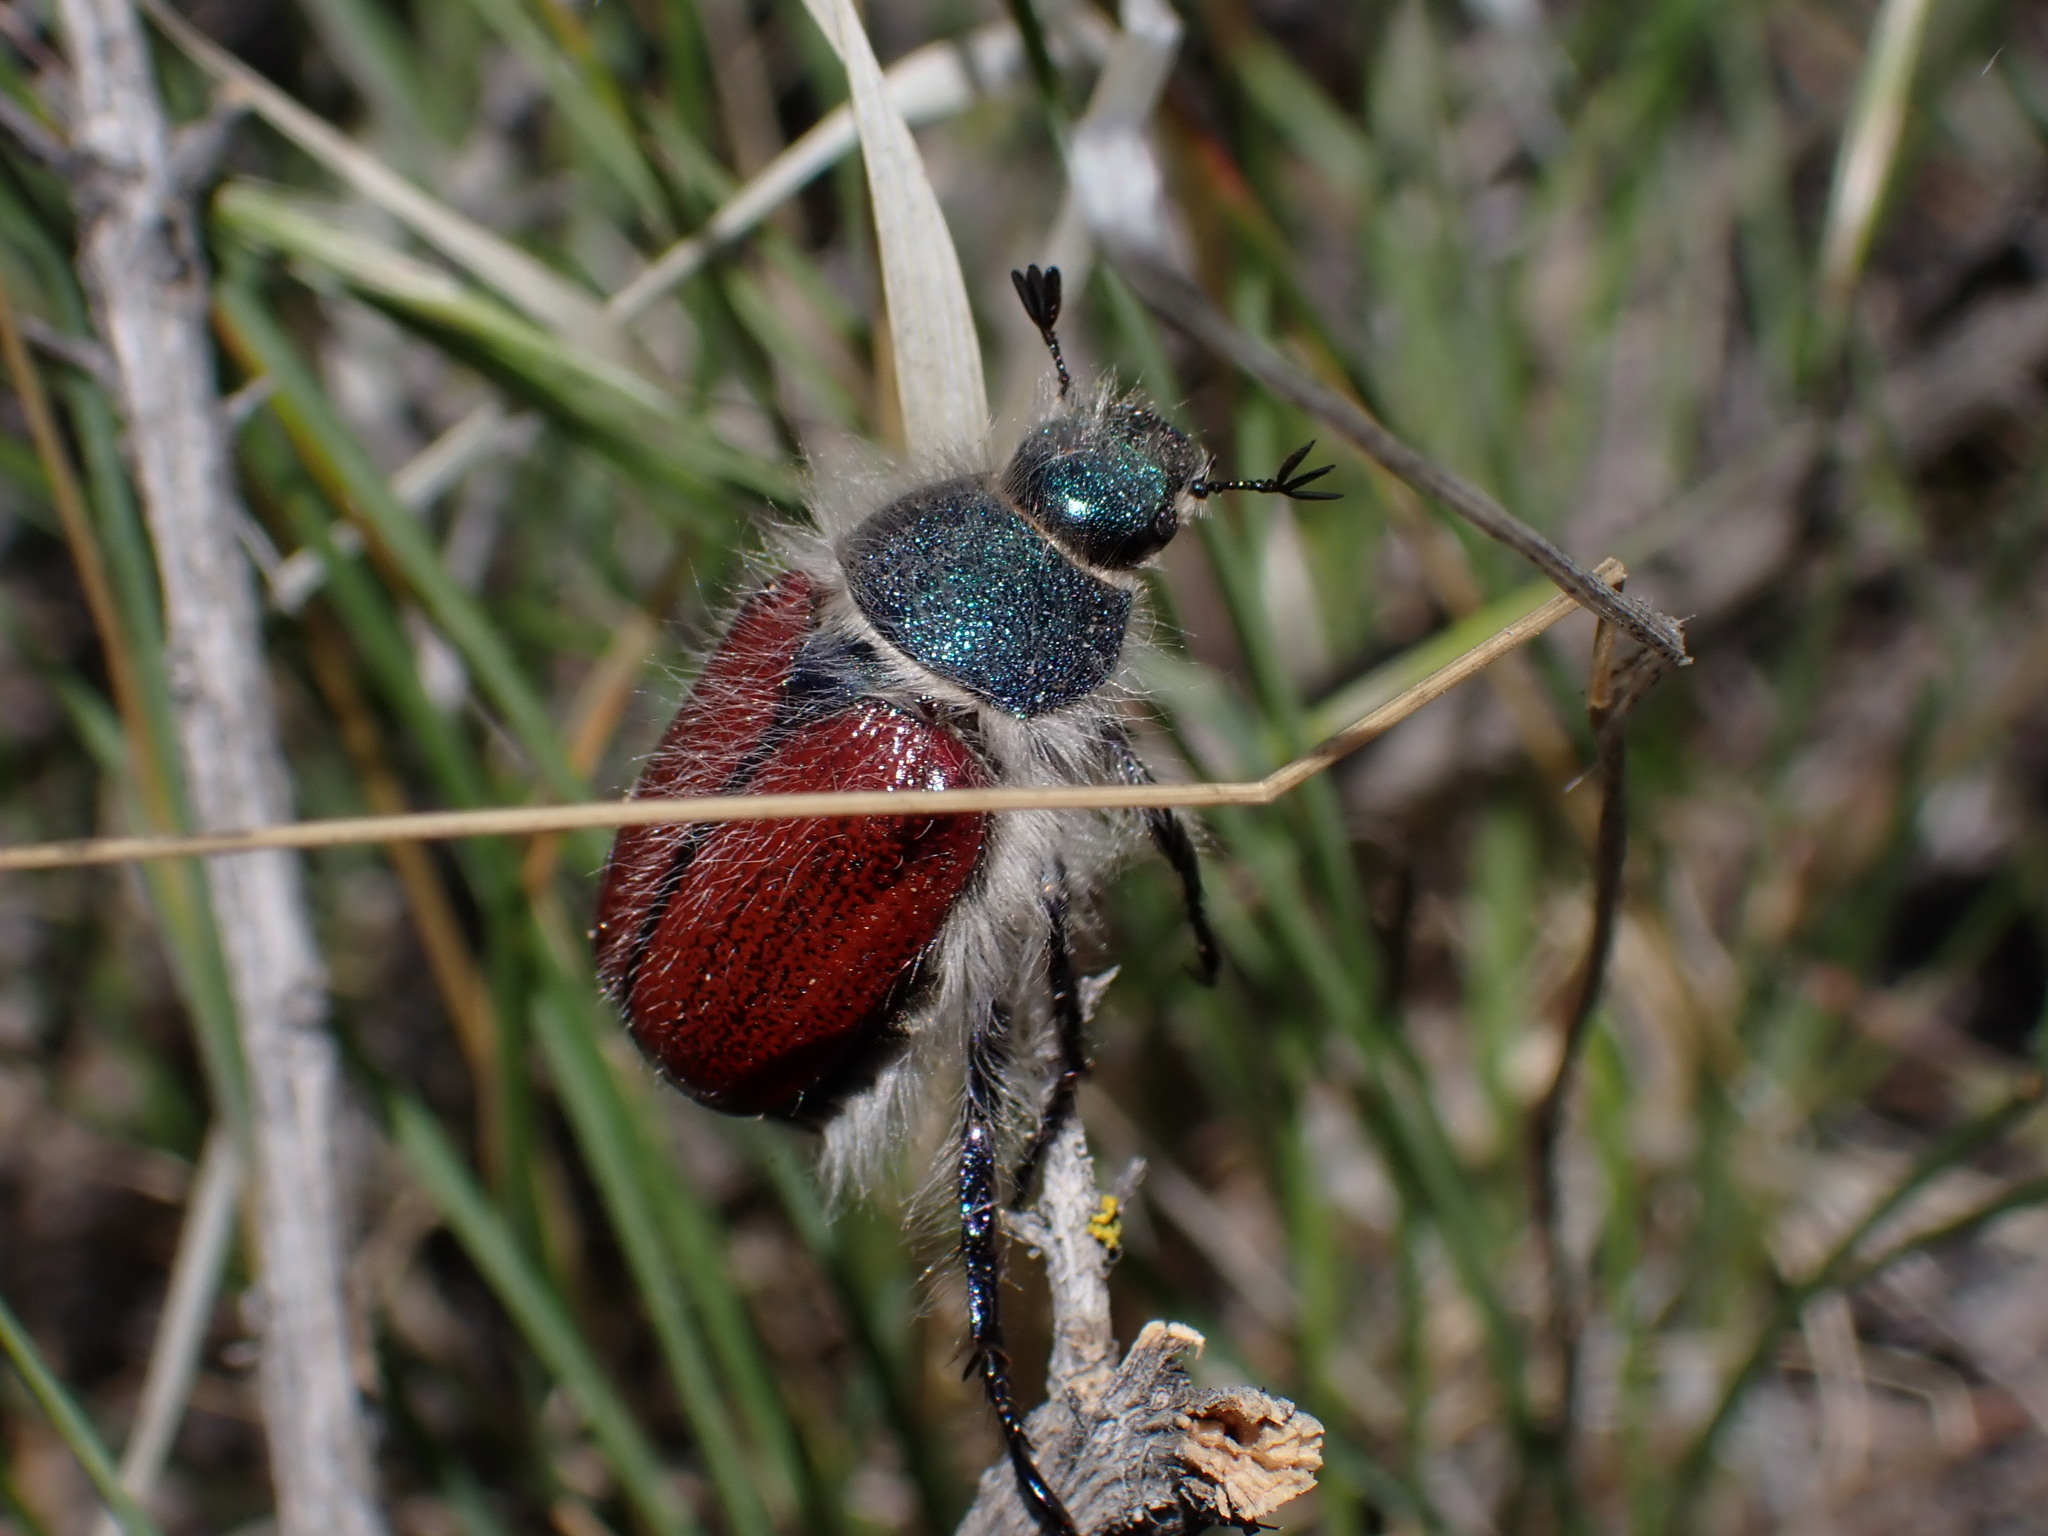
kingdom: Animalia
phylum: Arthropoda
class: Insecta
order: Coleoptera
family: Scarabaeidae
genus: Paracotalpa
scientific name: Paracotalpa granicollis
